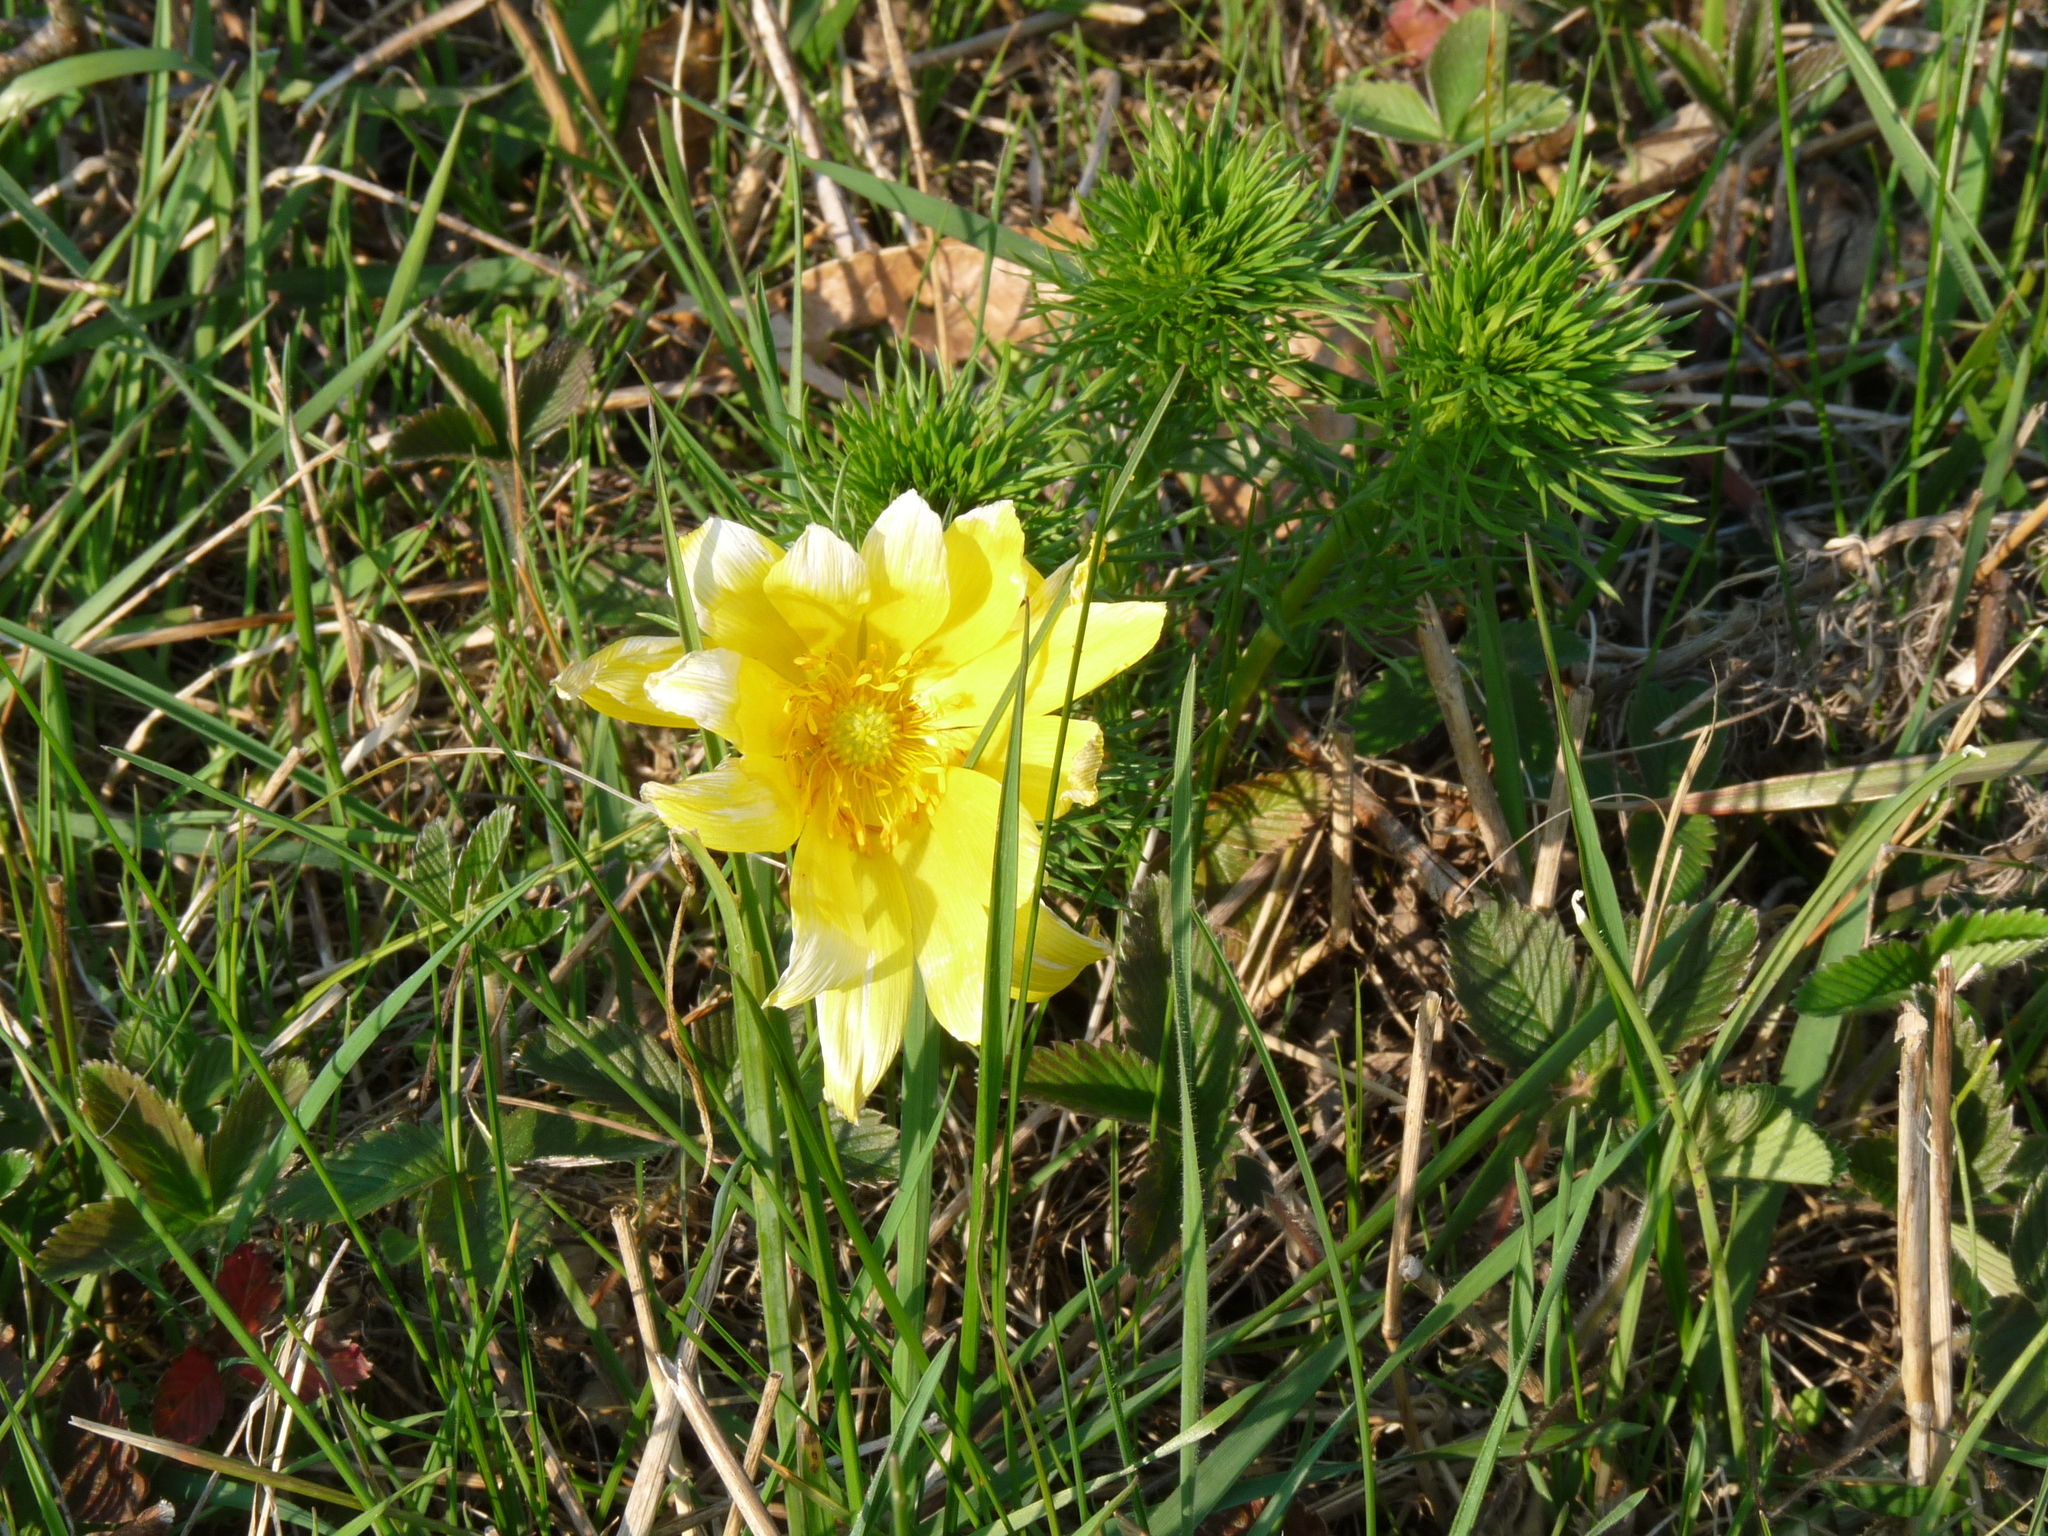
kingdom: Plantae
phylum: Tracheophyta
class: Magnoliopsida
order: Ranunculales
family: Ranunculaceae
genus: Adonis
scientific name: Adonis vernalis
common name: Yellow pheasants-eye
